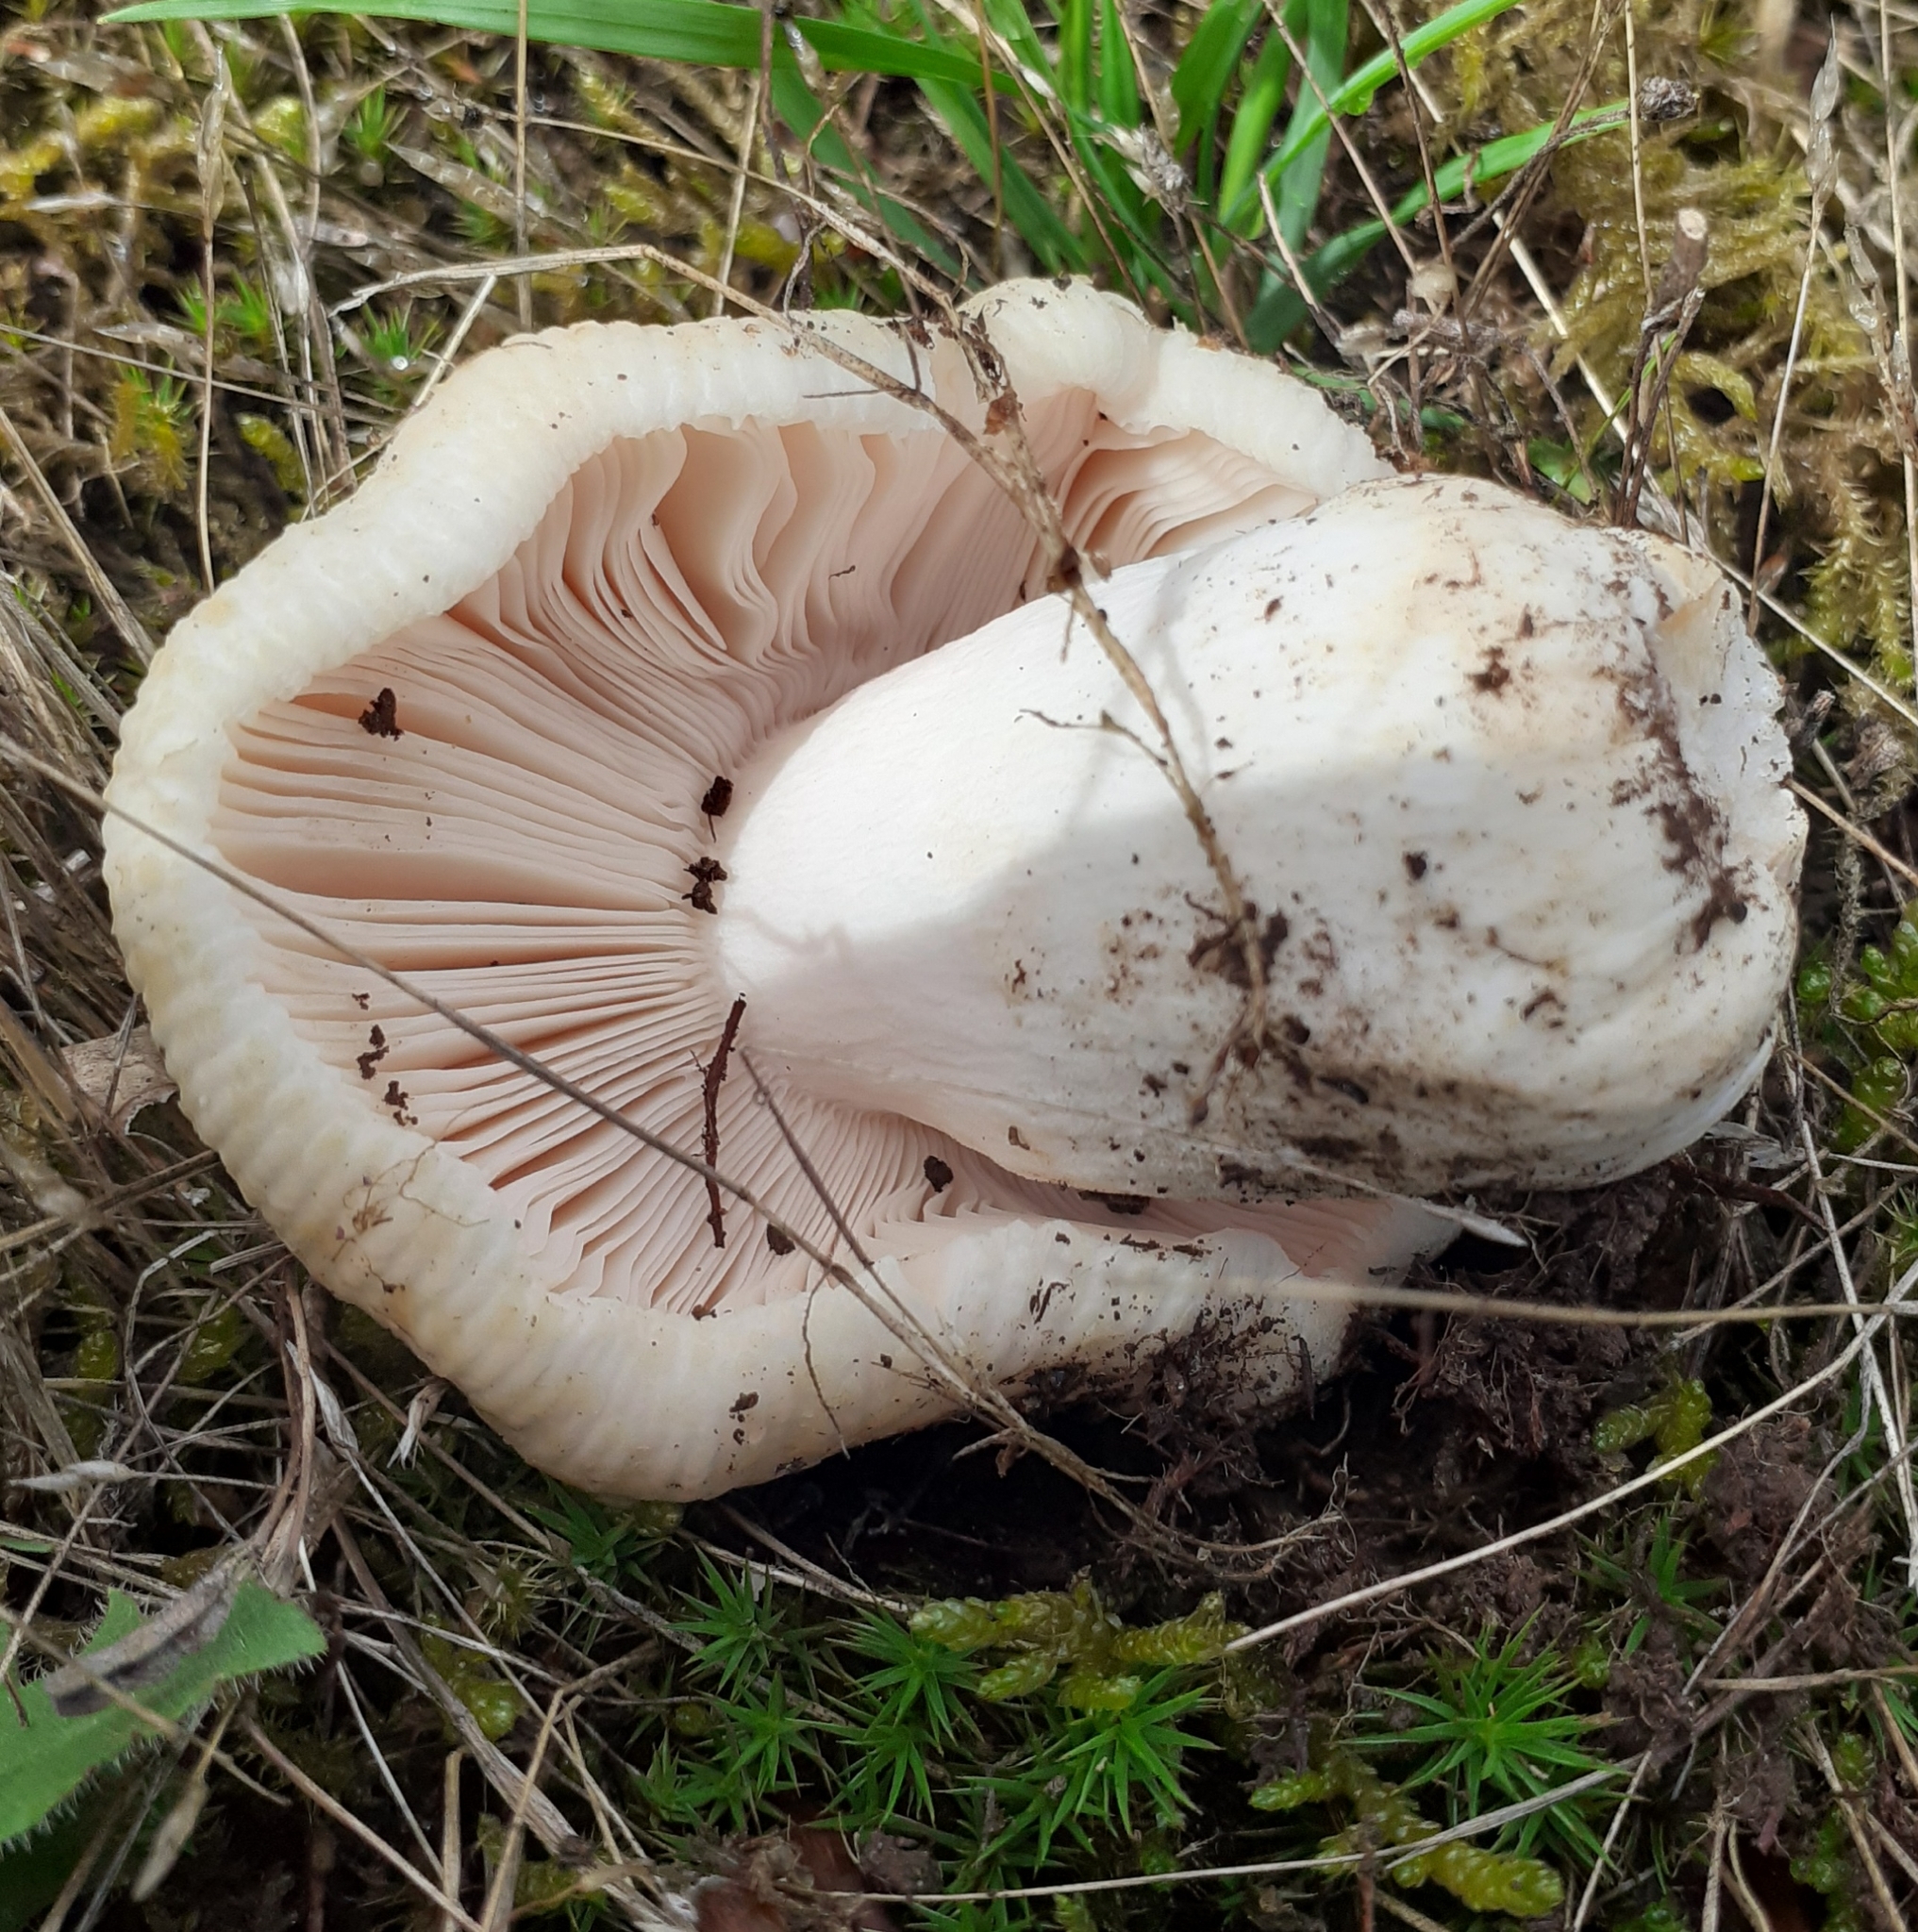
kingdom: Fungi
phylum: Basidiomycota
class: Agaricomycetes
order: Russulales
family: Russulaceae
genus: Russula
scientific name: Russula virescens
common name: Greencracked brittlegill
